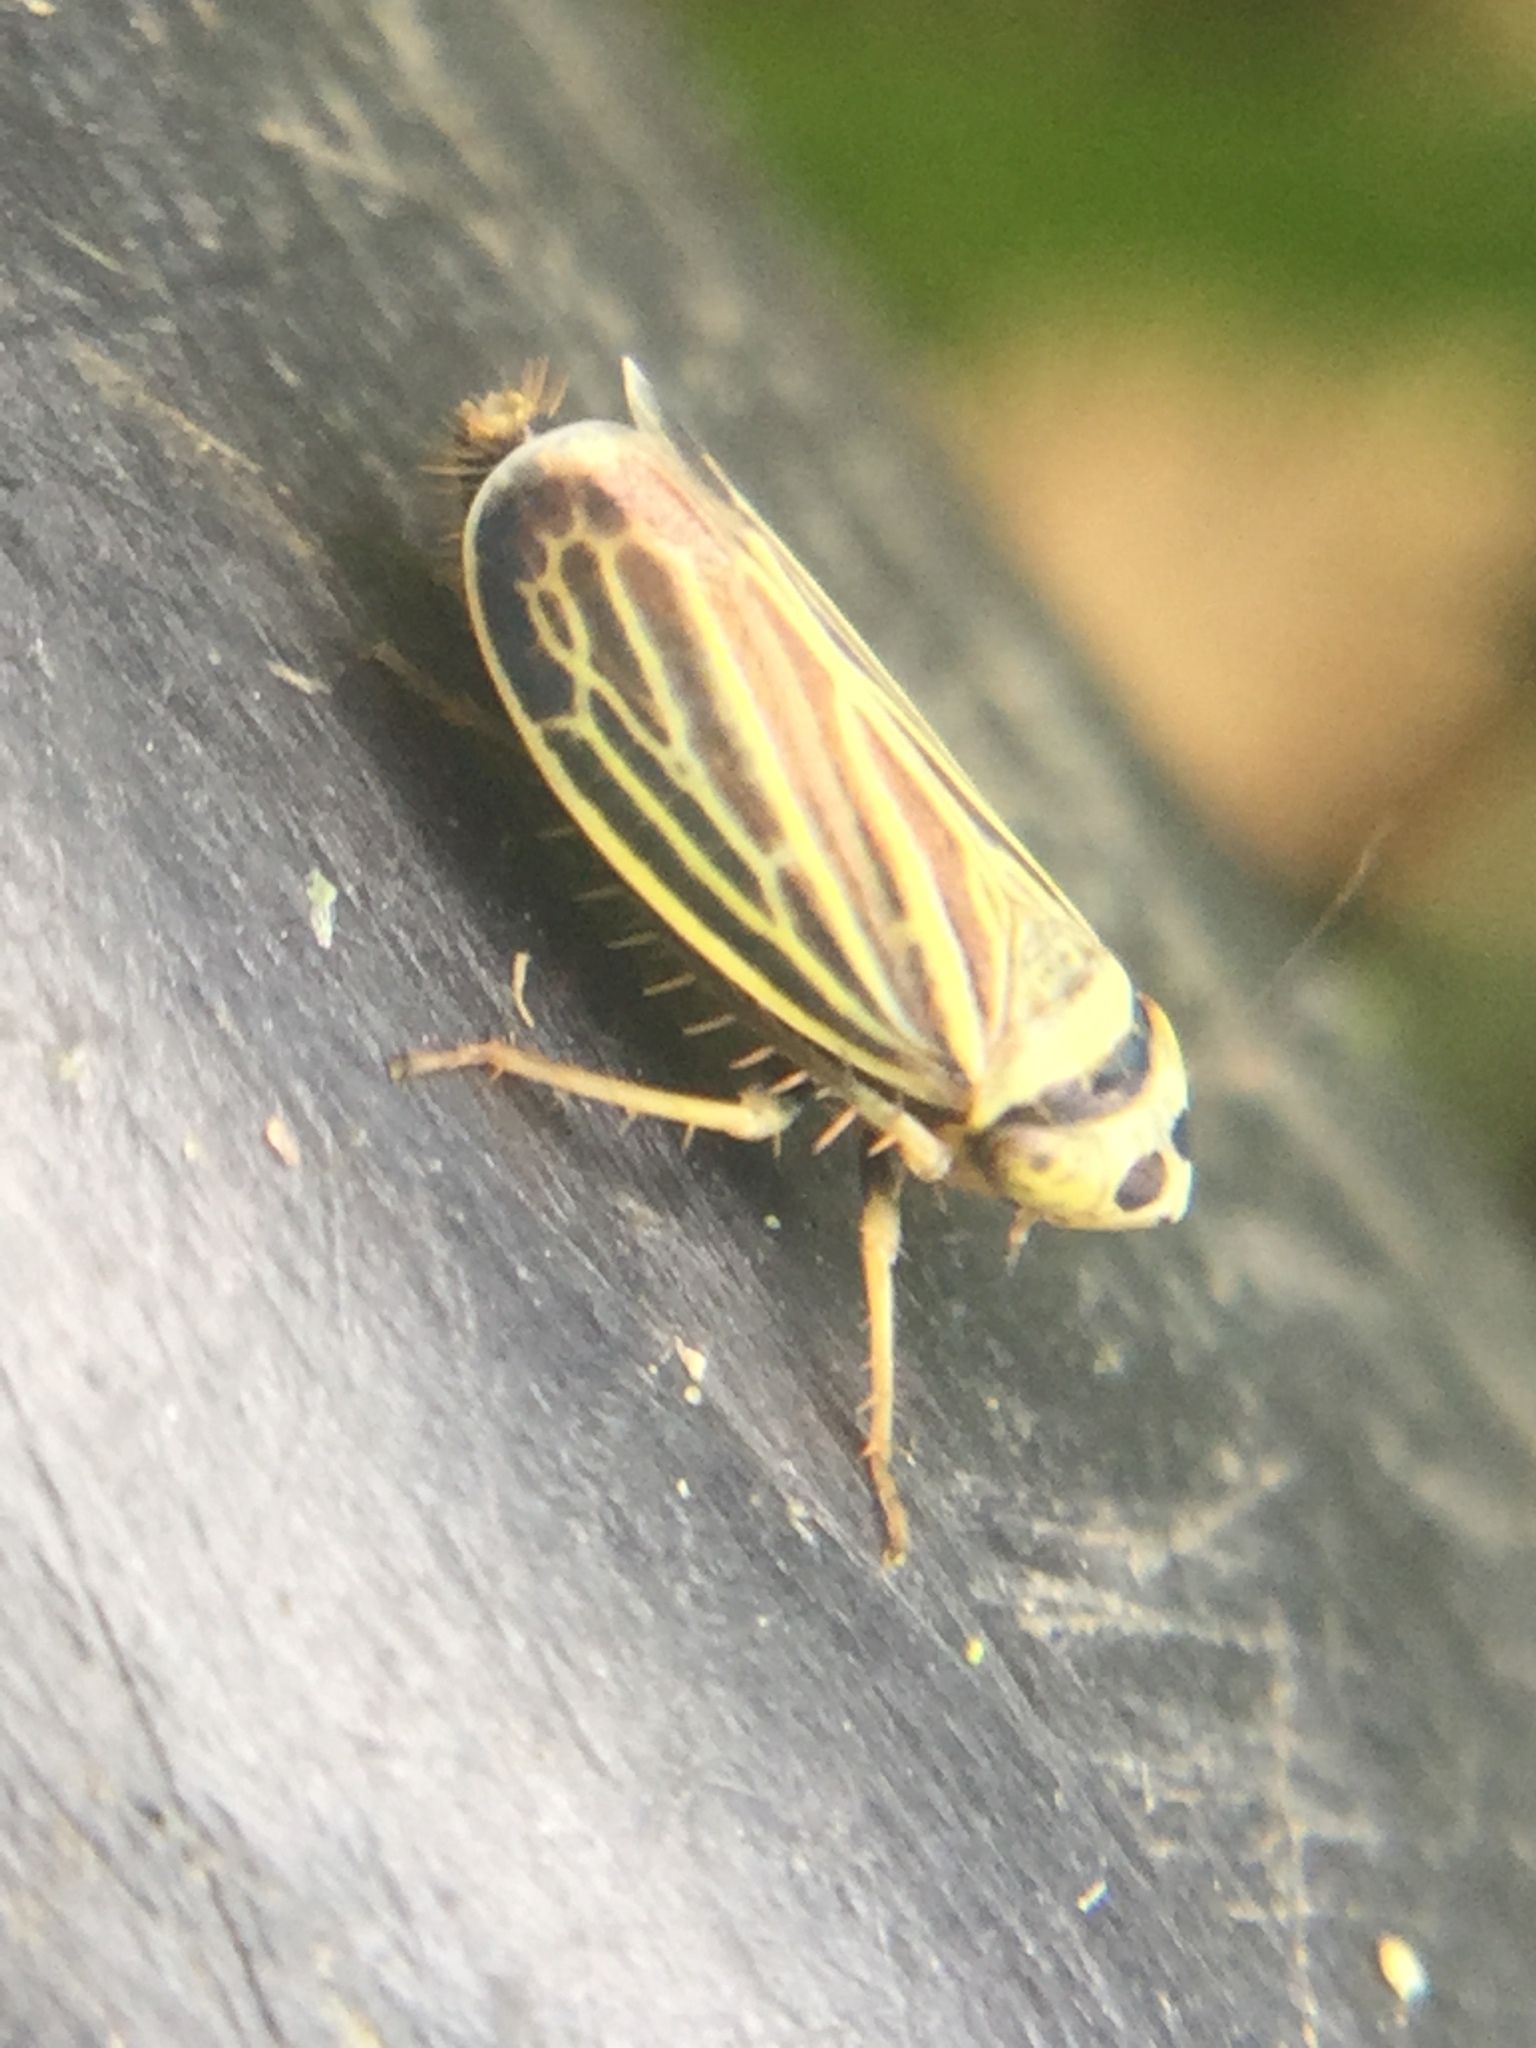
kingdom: Animalia
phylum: Arthropoda
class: Insecta
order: Hemiptera
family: Cicadellidae
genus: Amblysellus
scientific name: Amblysellus curtisii
